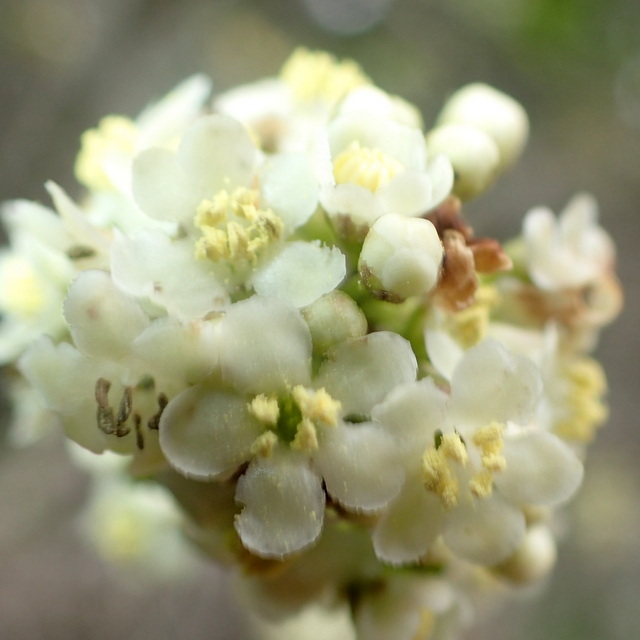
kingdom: Plantae
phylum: Tracheophyta
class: Magnoliopsida
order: Aquifoliales
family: Aquifoliaceae
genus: Ilex
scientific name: Ilex cassine
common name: Dahoon
